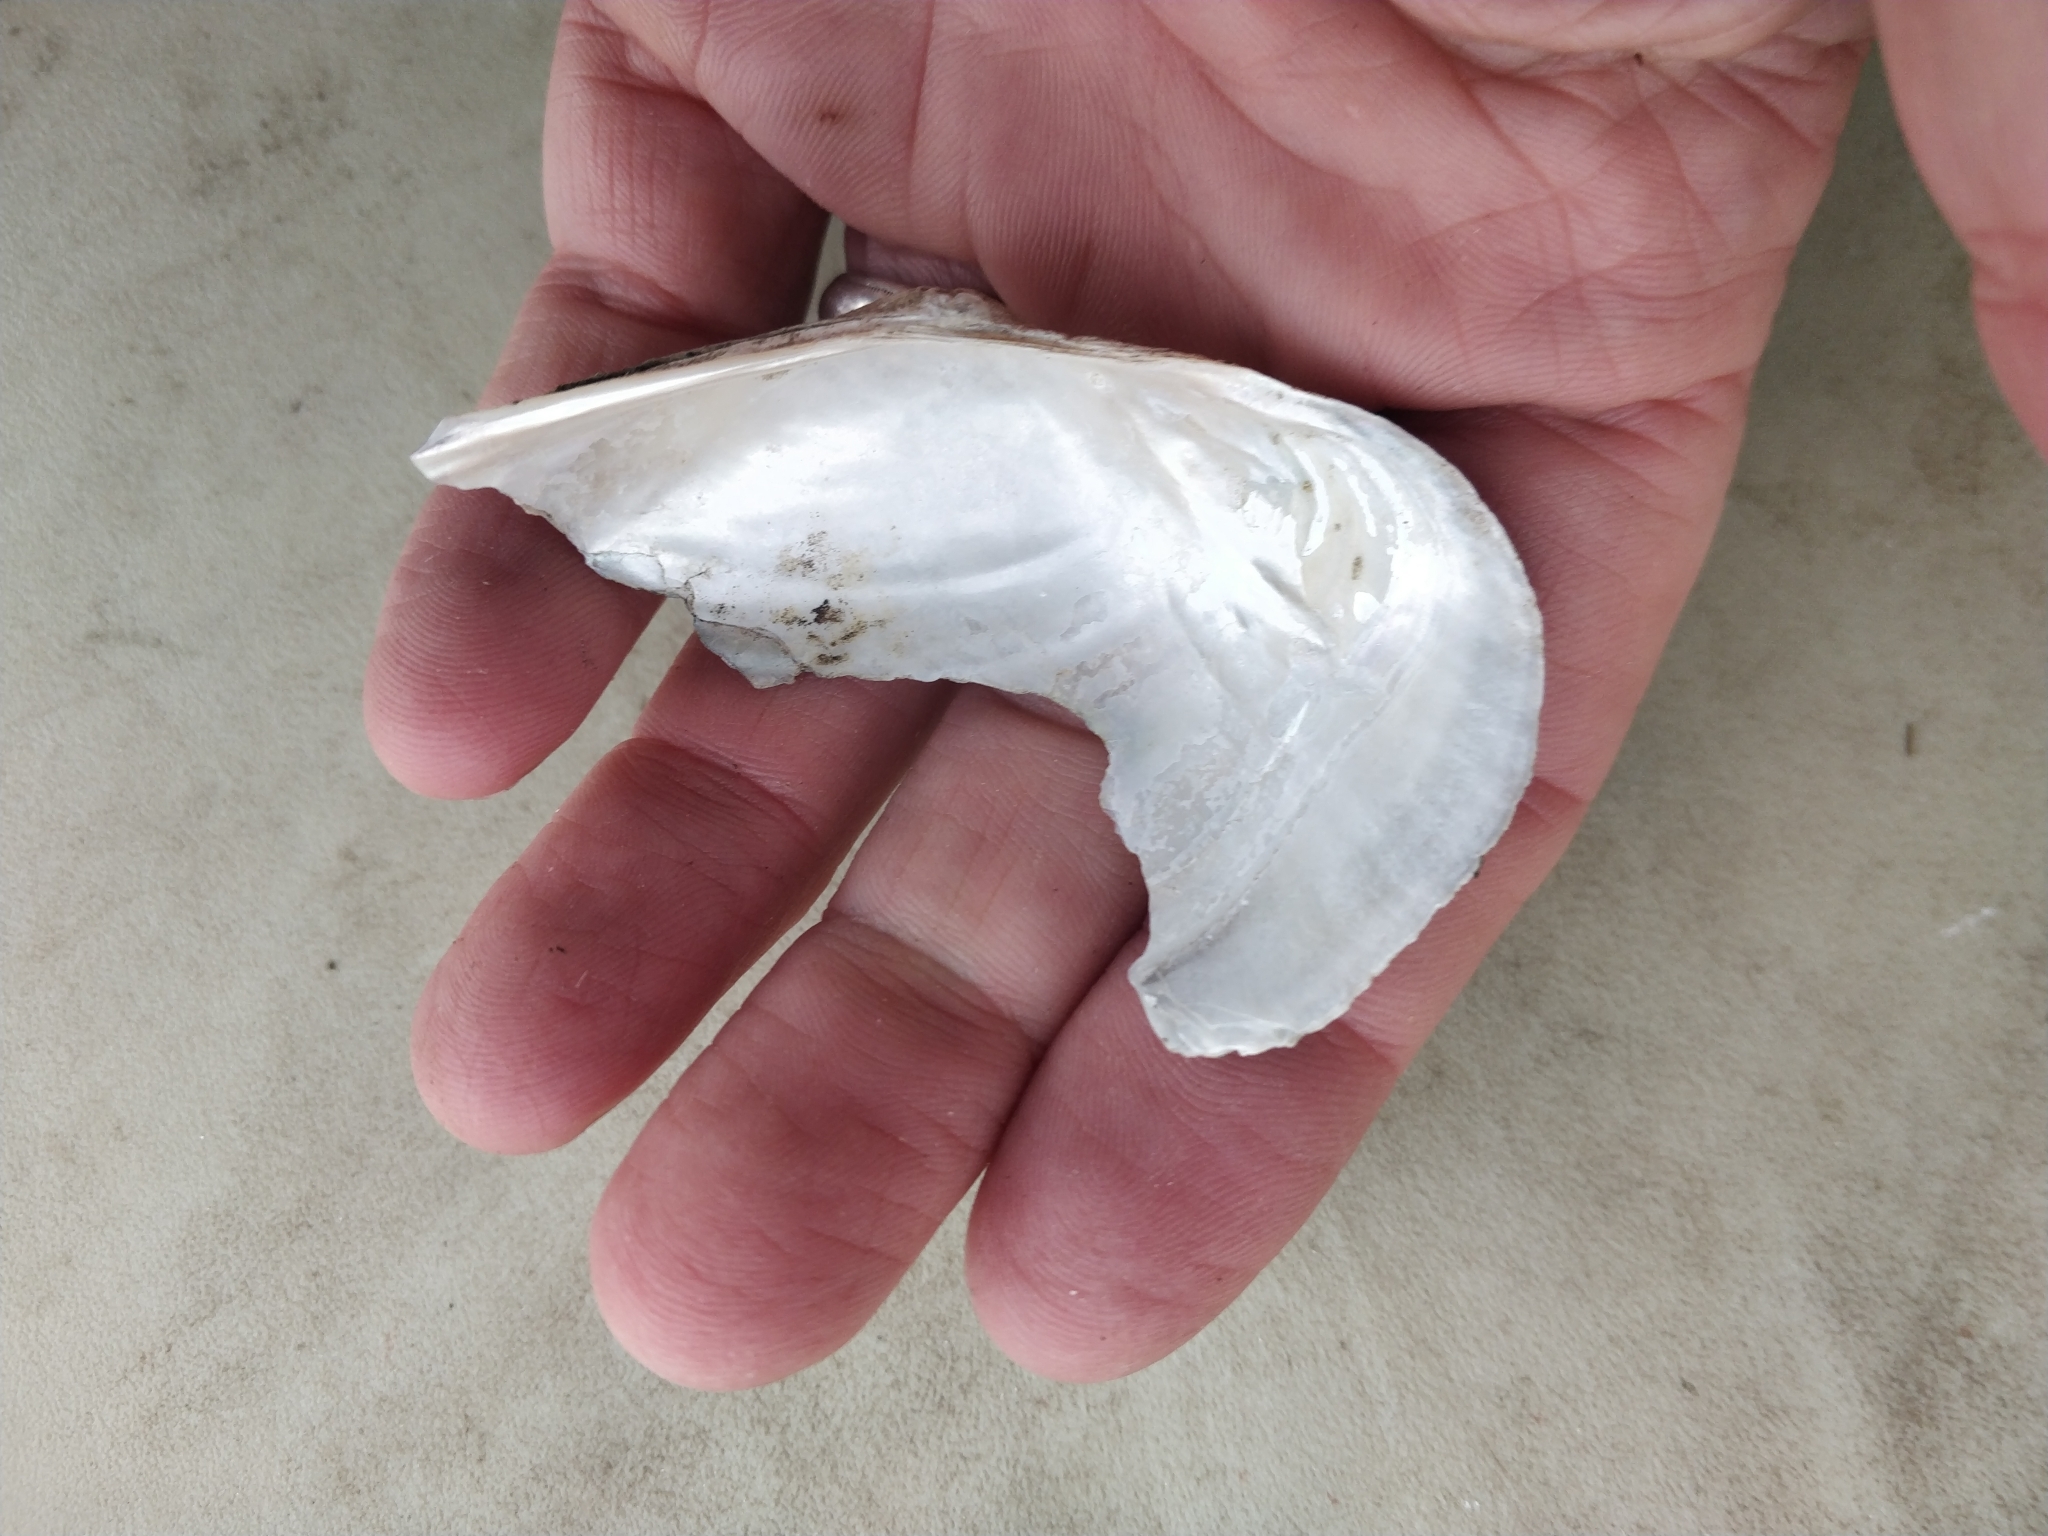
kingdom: Animalia
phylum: Mollusca
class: Bivalvia
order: Unionida
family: Unionidae
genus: Pyganodon
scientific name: Pyganodon grandis
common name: Giant floater
